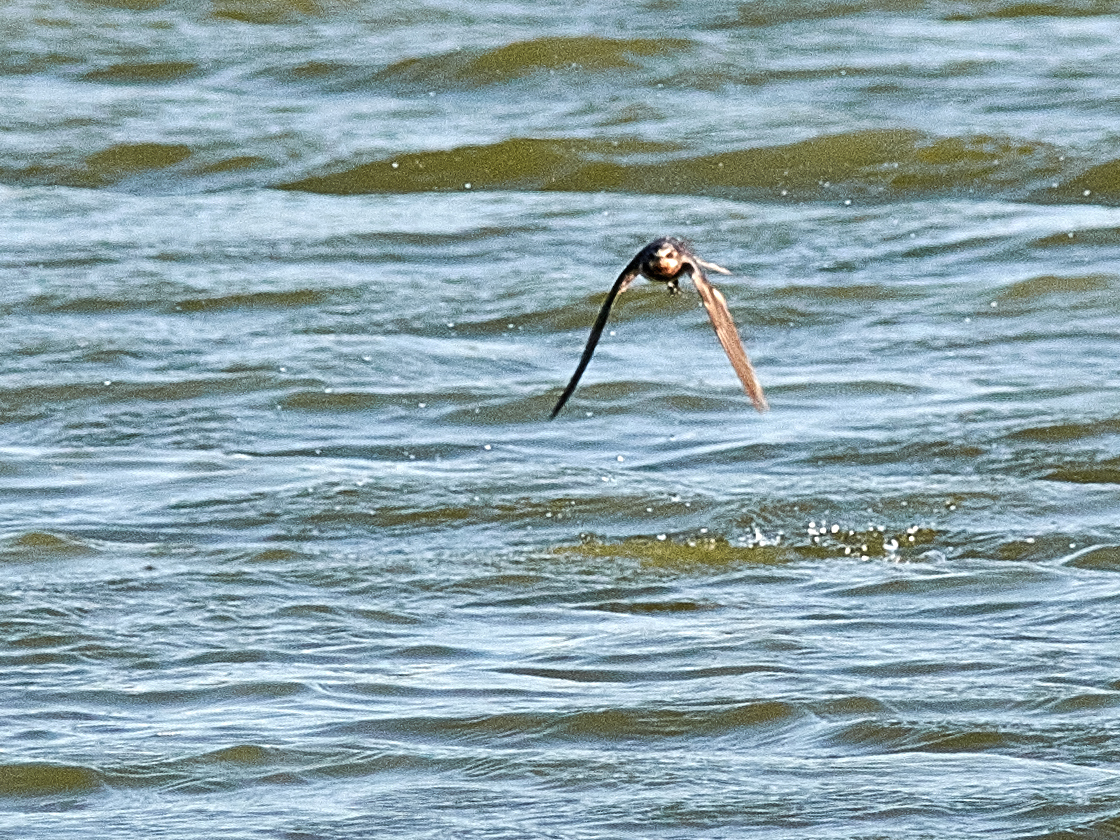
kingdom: Animalia
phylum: Chordata
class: Aves
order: Passeriformes
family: Hirundinidae
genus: Hirundo
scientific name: Hirundo rustica
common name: Barn swallow
